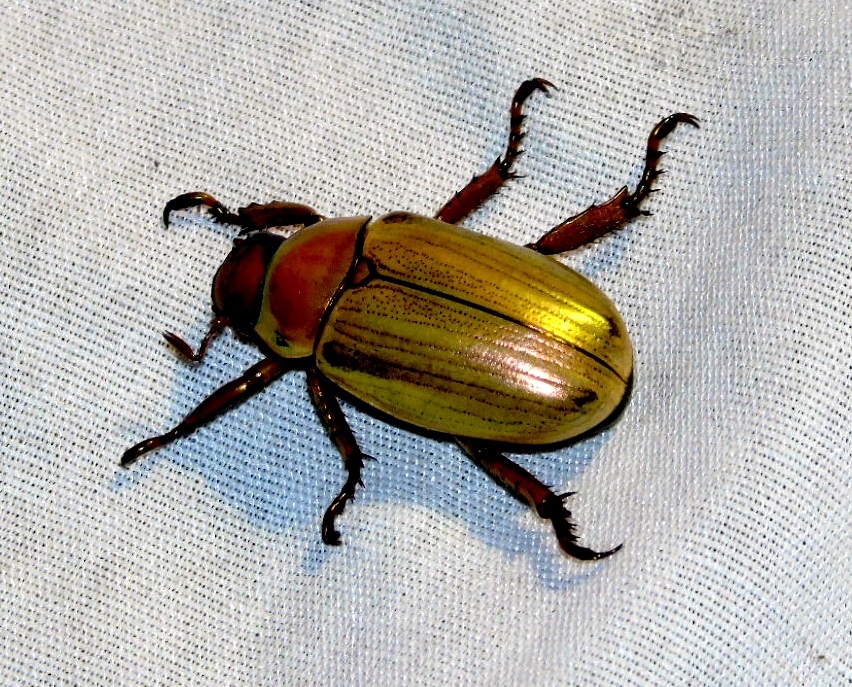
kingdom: Animalia
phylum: Arthropoda
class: Insecta
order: Coleoptera
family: Scarabaeidae
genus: Pelidnota
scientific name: Pelidnota
